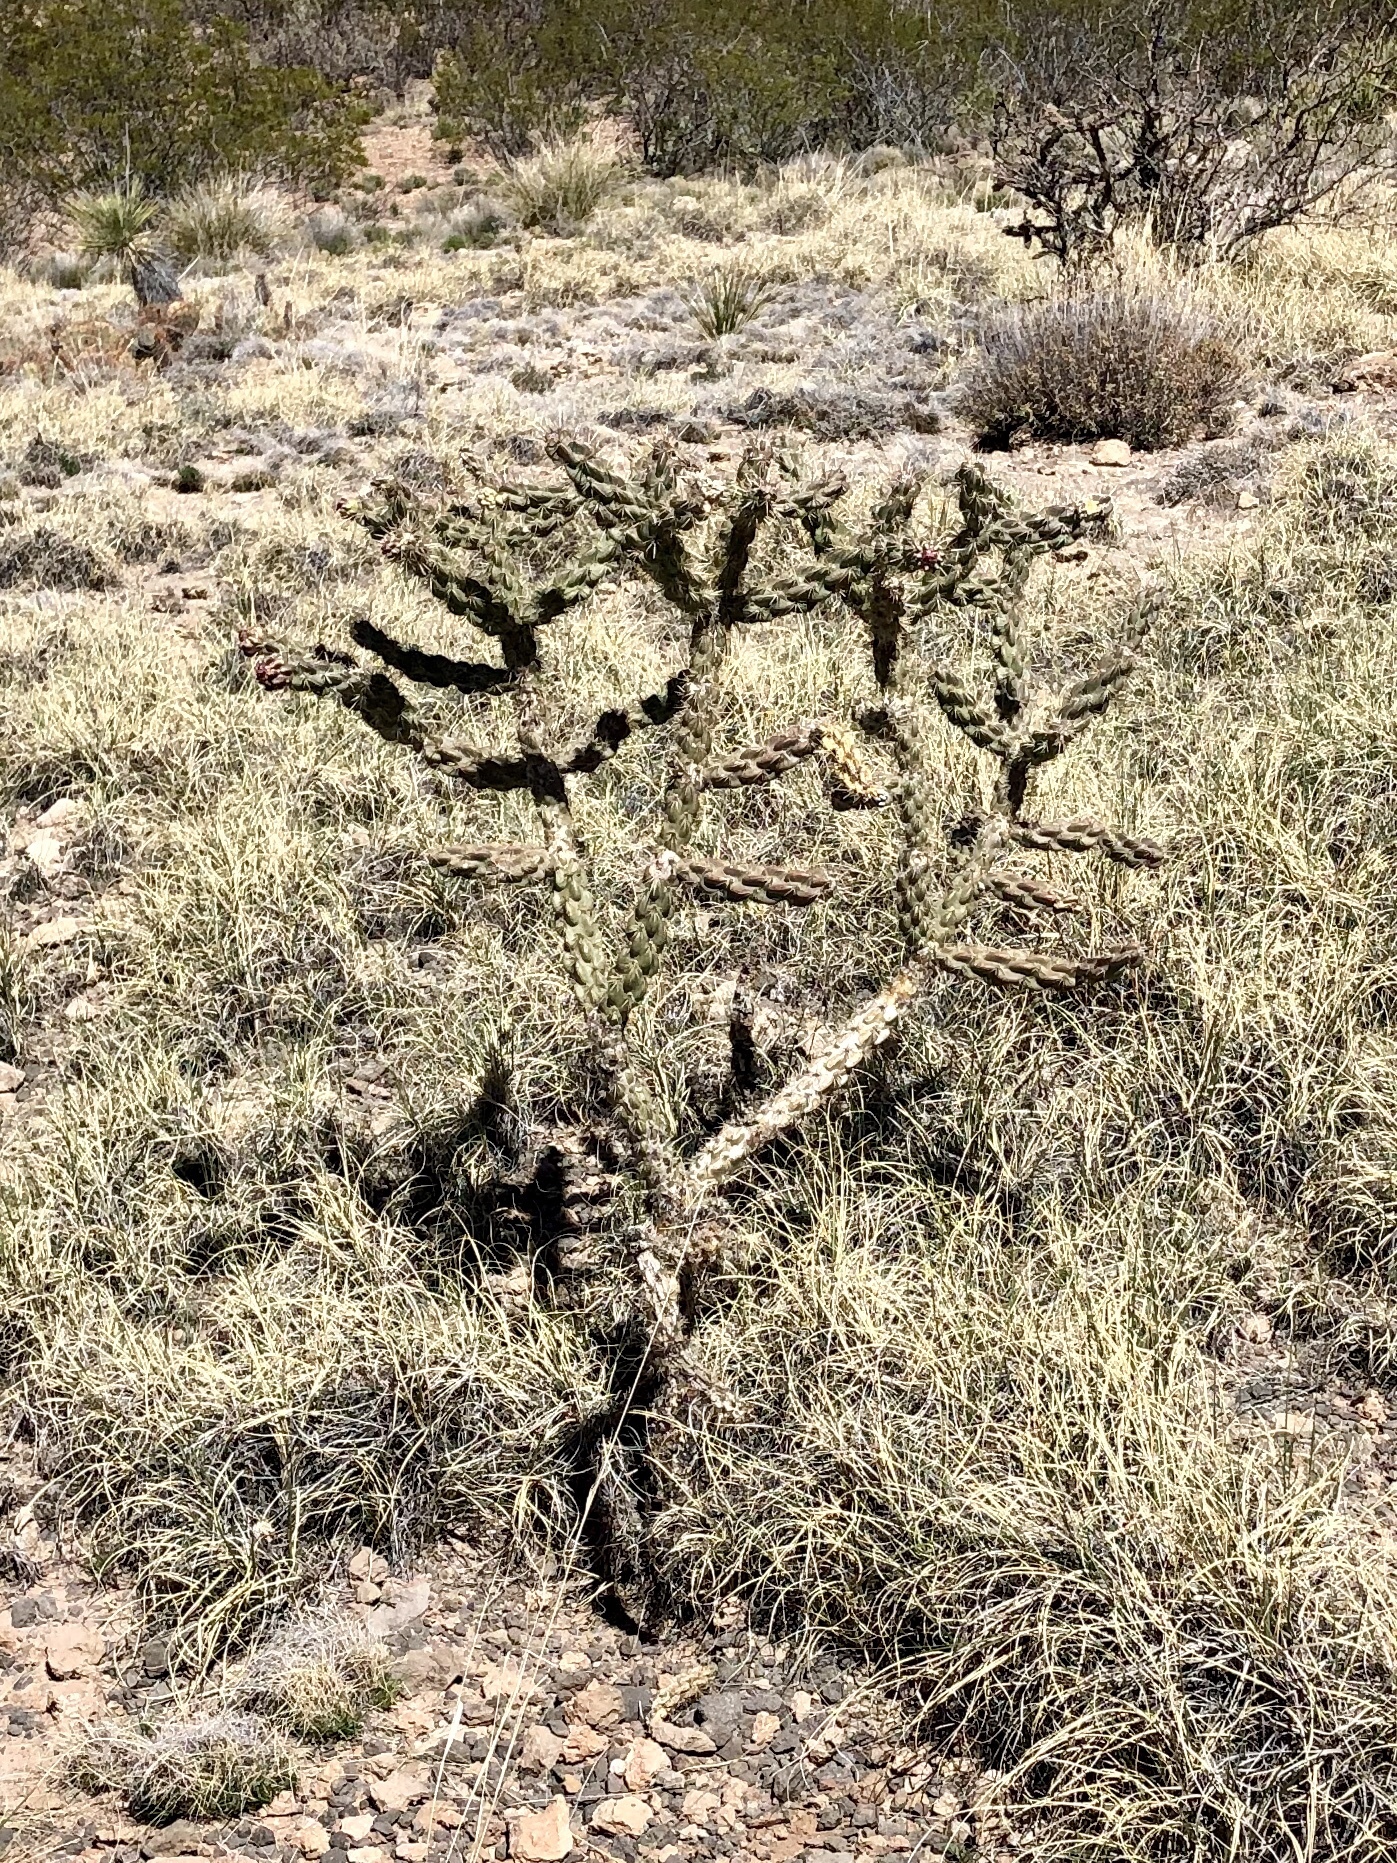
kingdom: Plantae
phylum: Tracheophyta
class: Magnoliopsida
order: Caryophyllales
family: Cactaceae
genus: Cylindropuntia
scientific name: Cylindropuntia imbricata
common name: Candelabrum cactus
